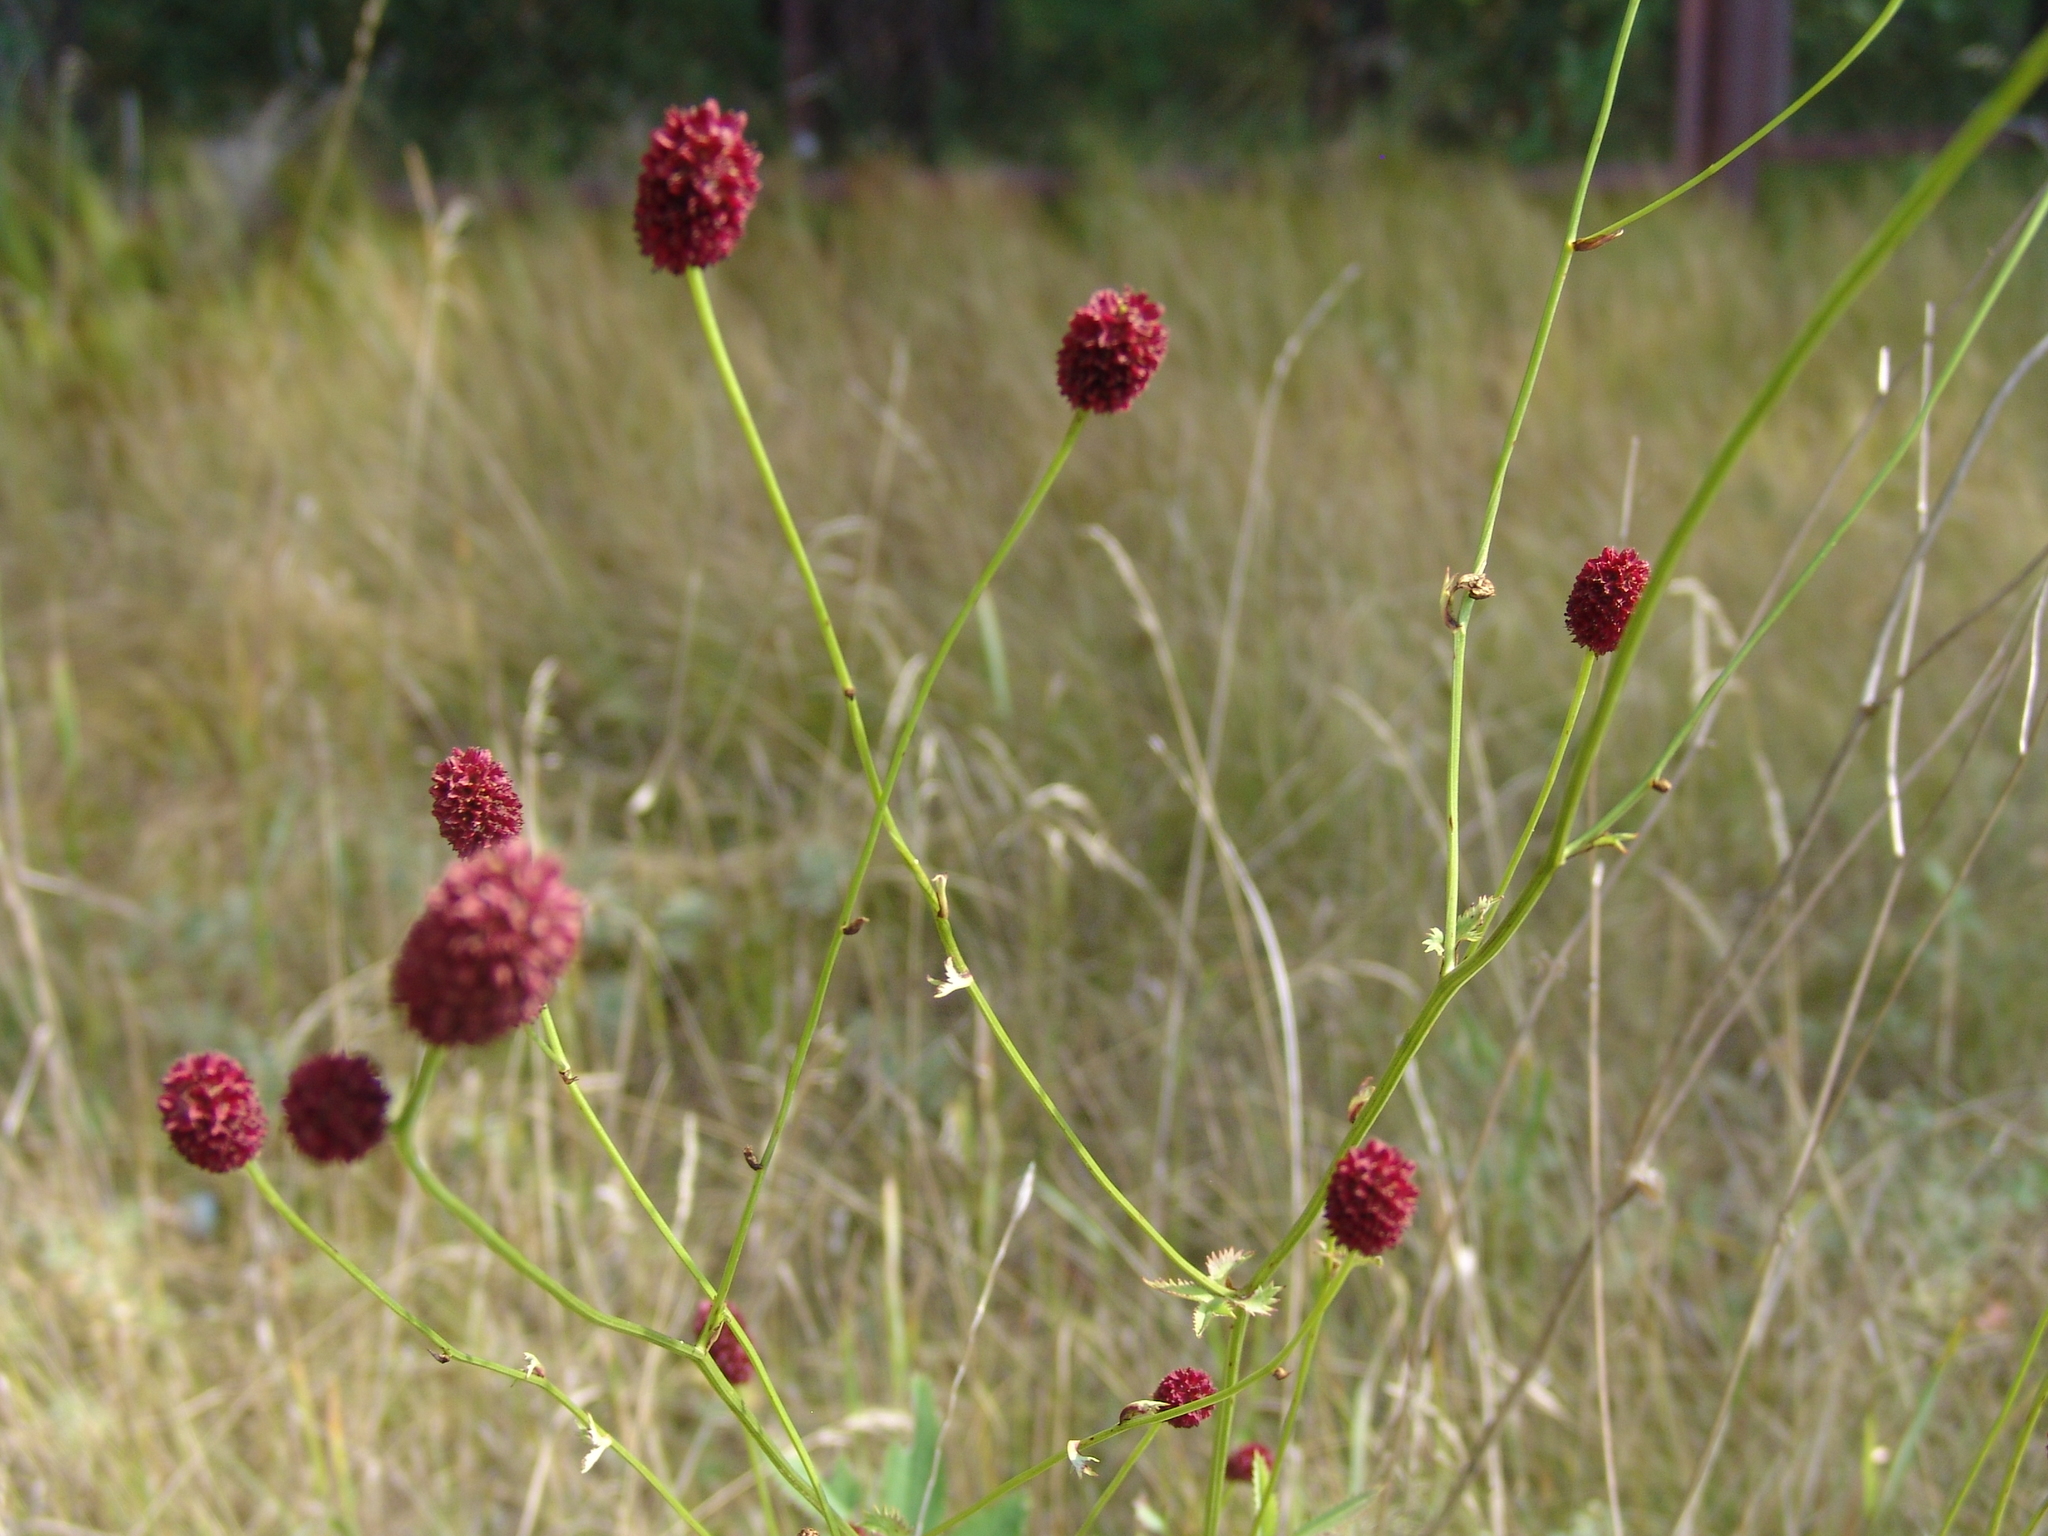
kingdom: Plantae
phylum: Tracheophyta
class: Magnoliopsida
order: Rosales
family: Rosaceae
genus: Sanguisorba
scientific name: Sanguisorba officinalis
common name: Great burnet
